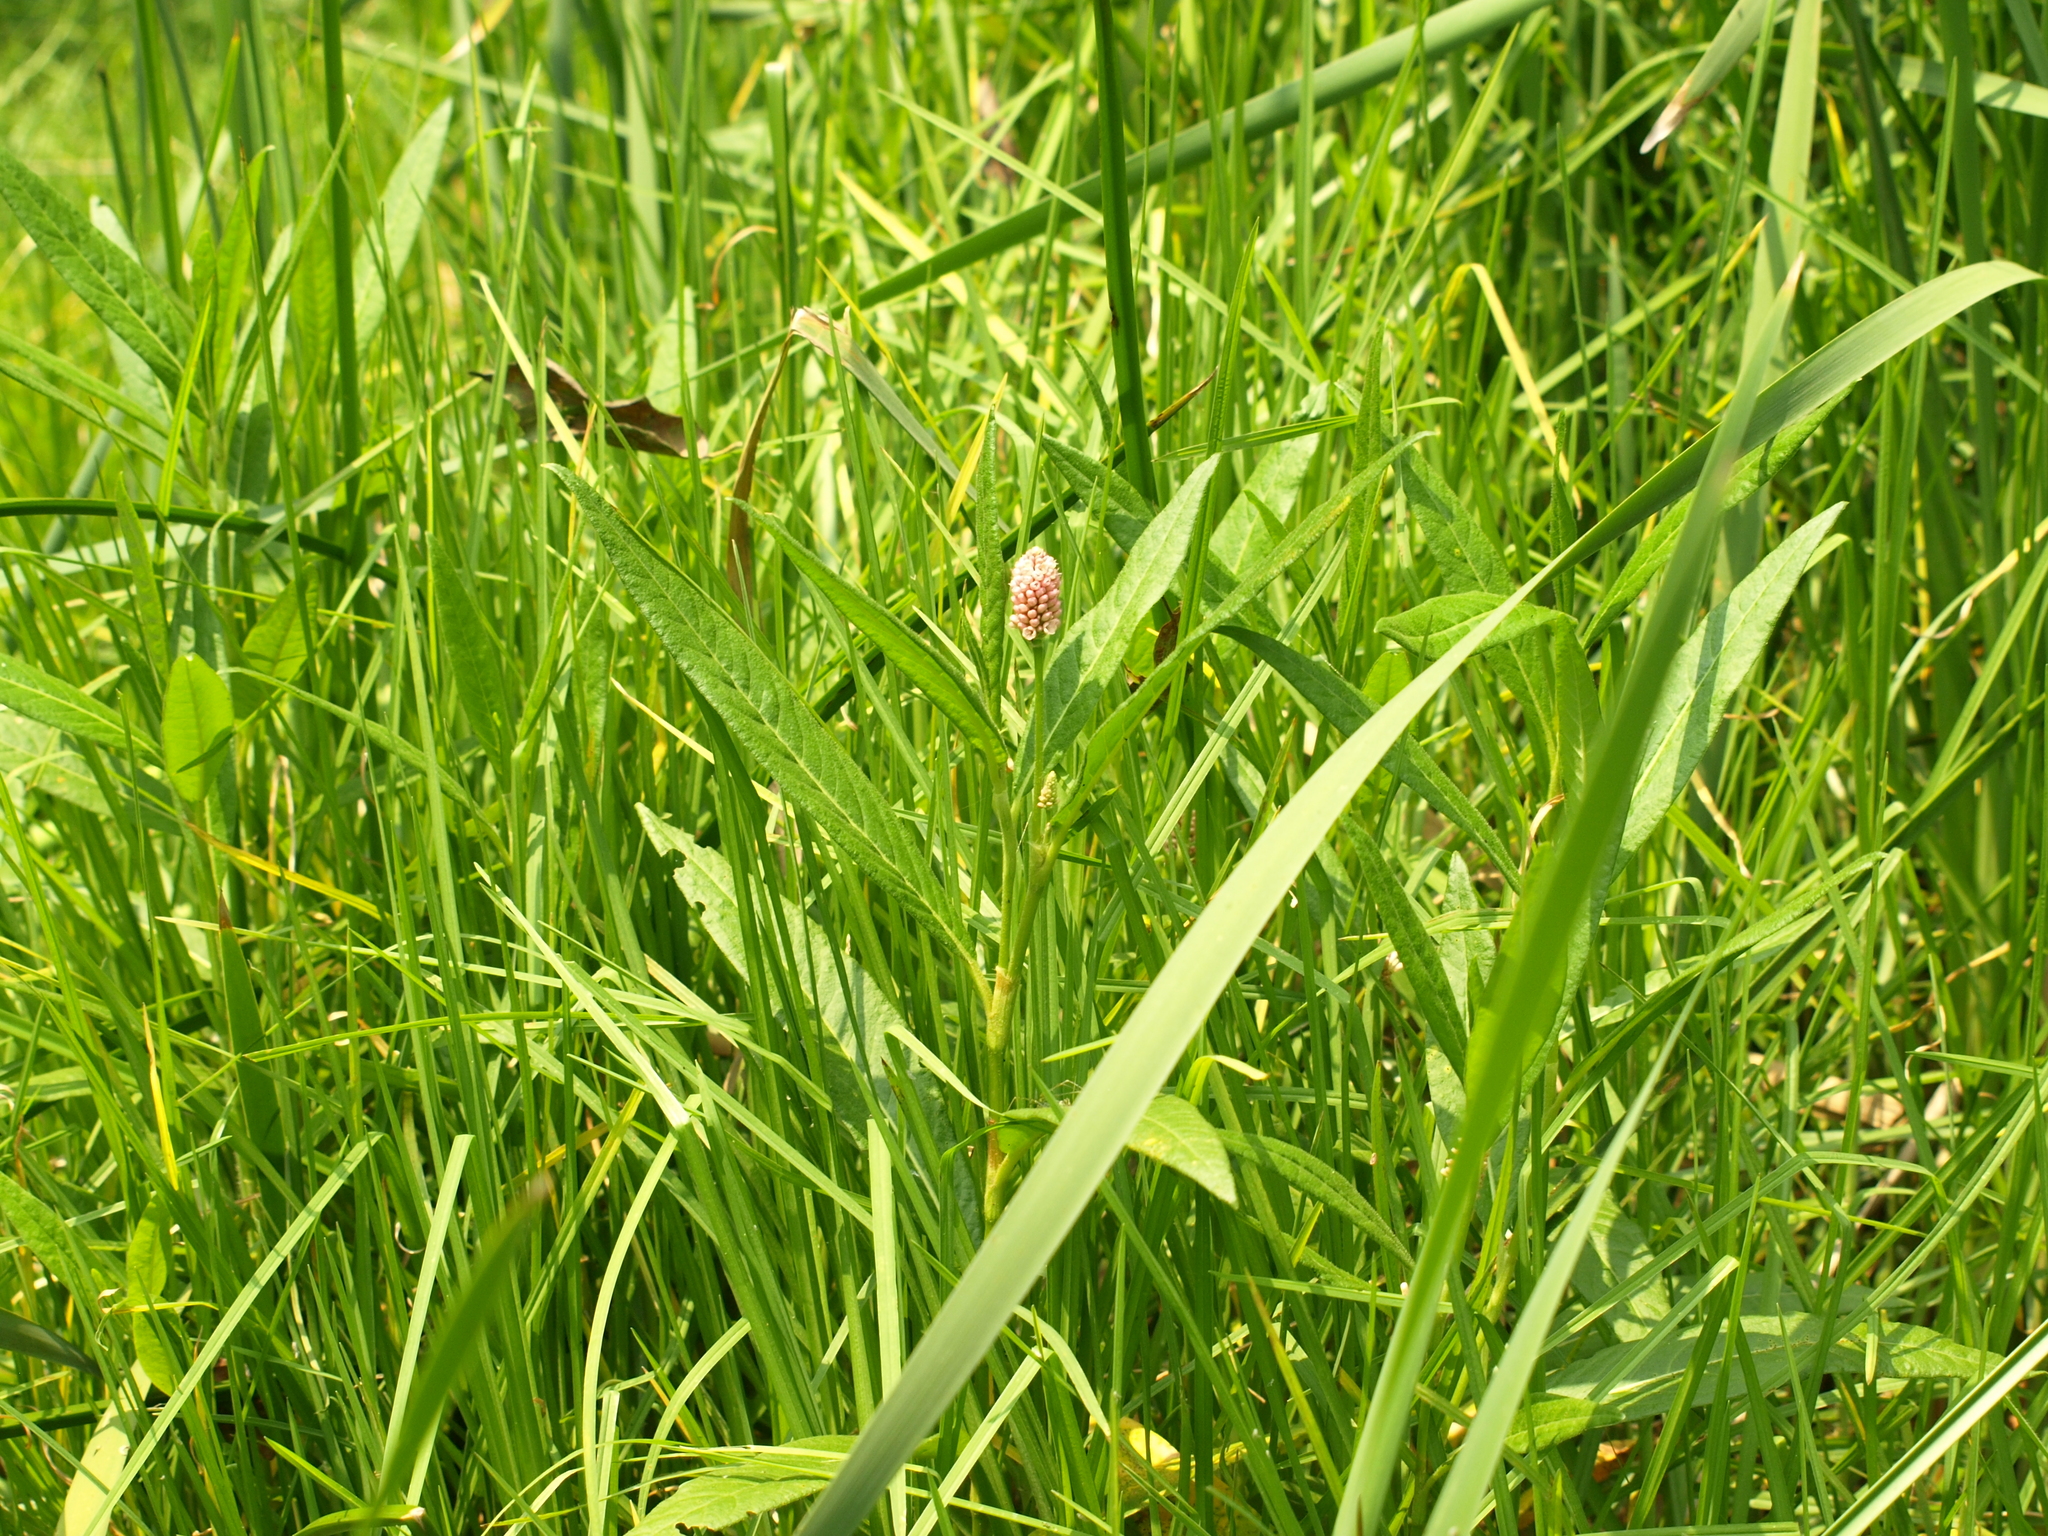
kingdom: Plantae
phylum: Tracheophyta
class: Magnoliopsida
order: Caryophyllales
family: Polygonaceae
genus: Persicaria
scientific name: Persicaria amphibia
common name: Amphibious bistort
